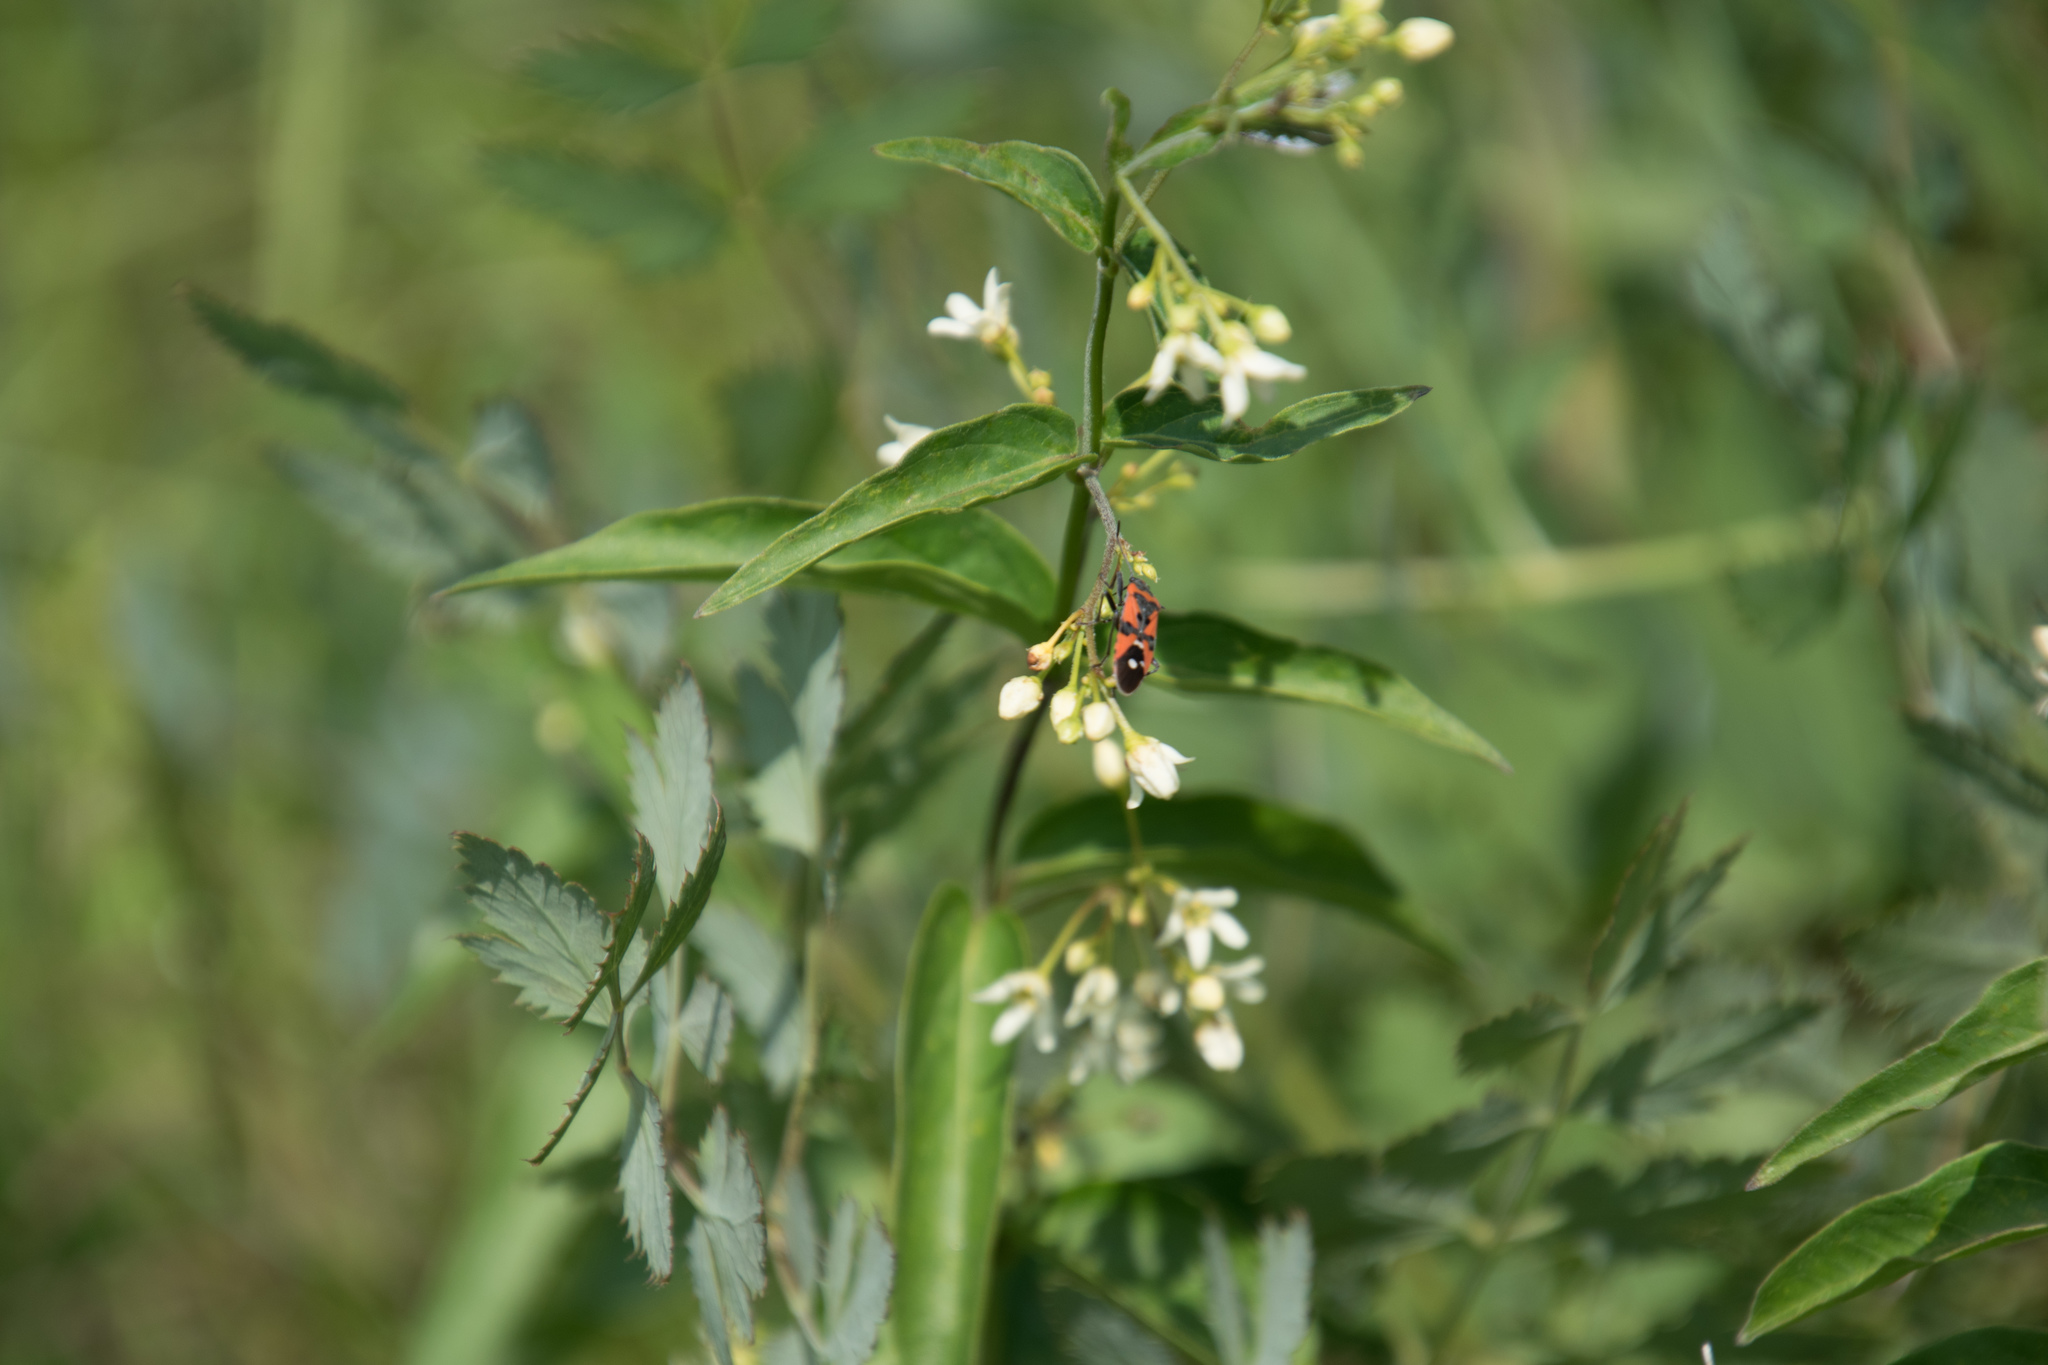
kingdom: Plantae
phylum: Tracheophyta
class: Magnoliopsida
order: Gentianales
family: Apocynaceae
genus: Vincetoxicum
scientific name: Vincetoxicum hirundinaria
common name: White swallowwort
